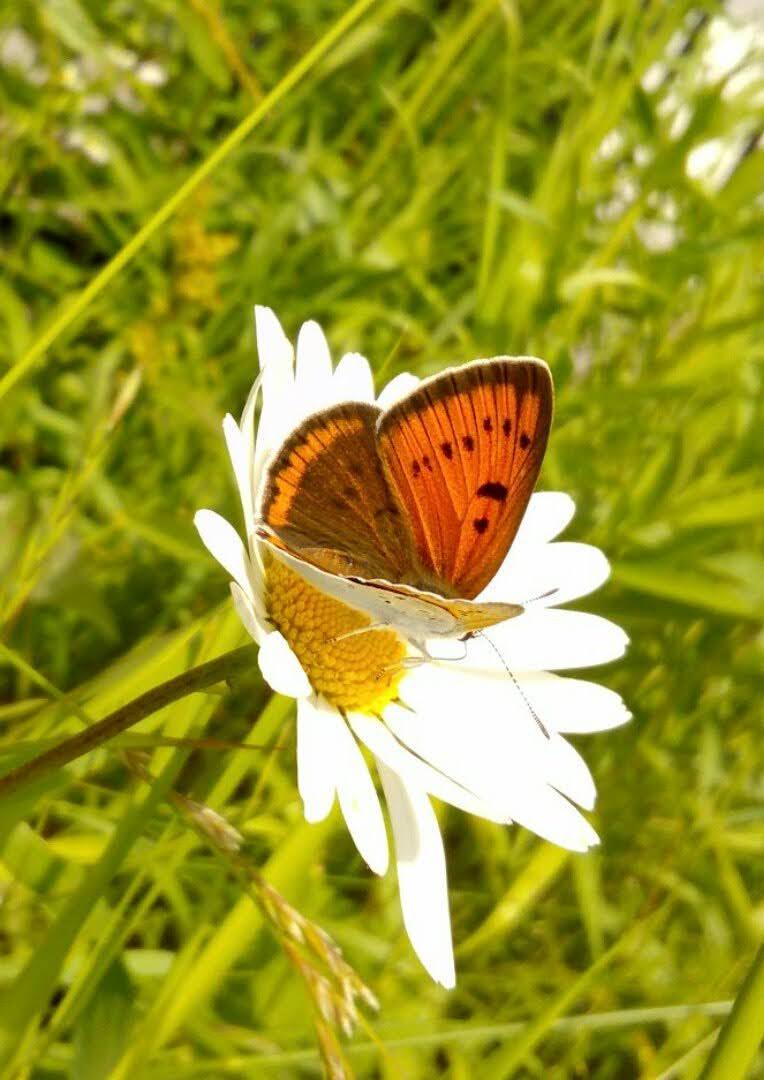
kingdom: Animalia
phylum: Arthropoda
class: Insecta
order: Lepidoptera
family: Lycaenidae
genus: Lycaena
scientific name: Lycaena dispar
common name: Large copper
